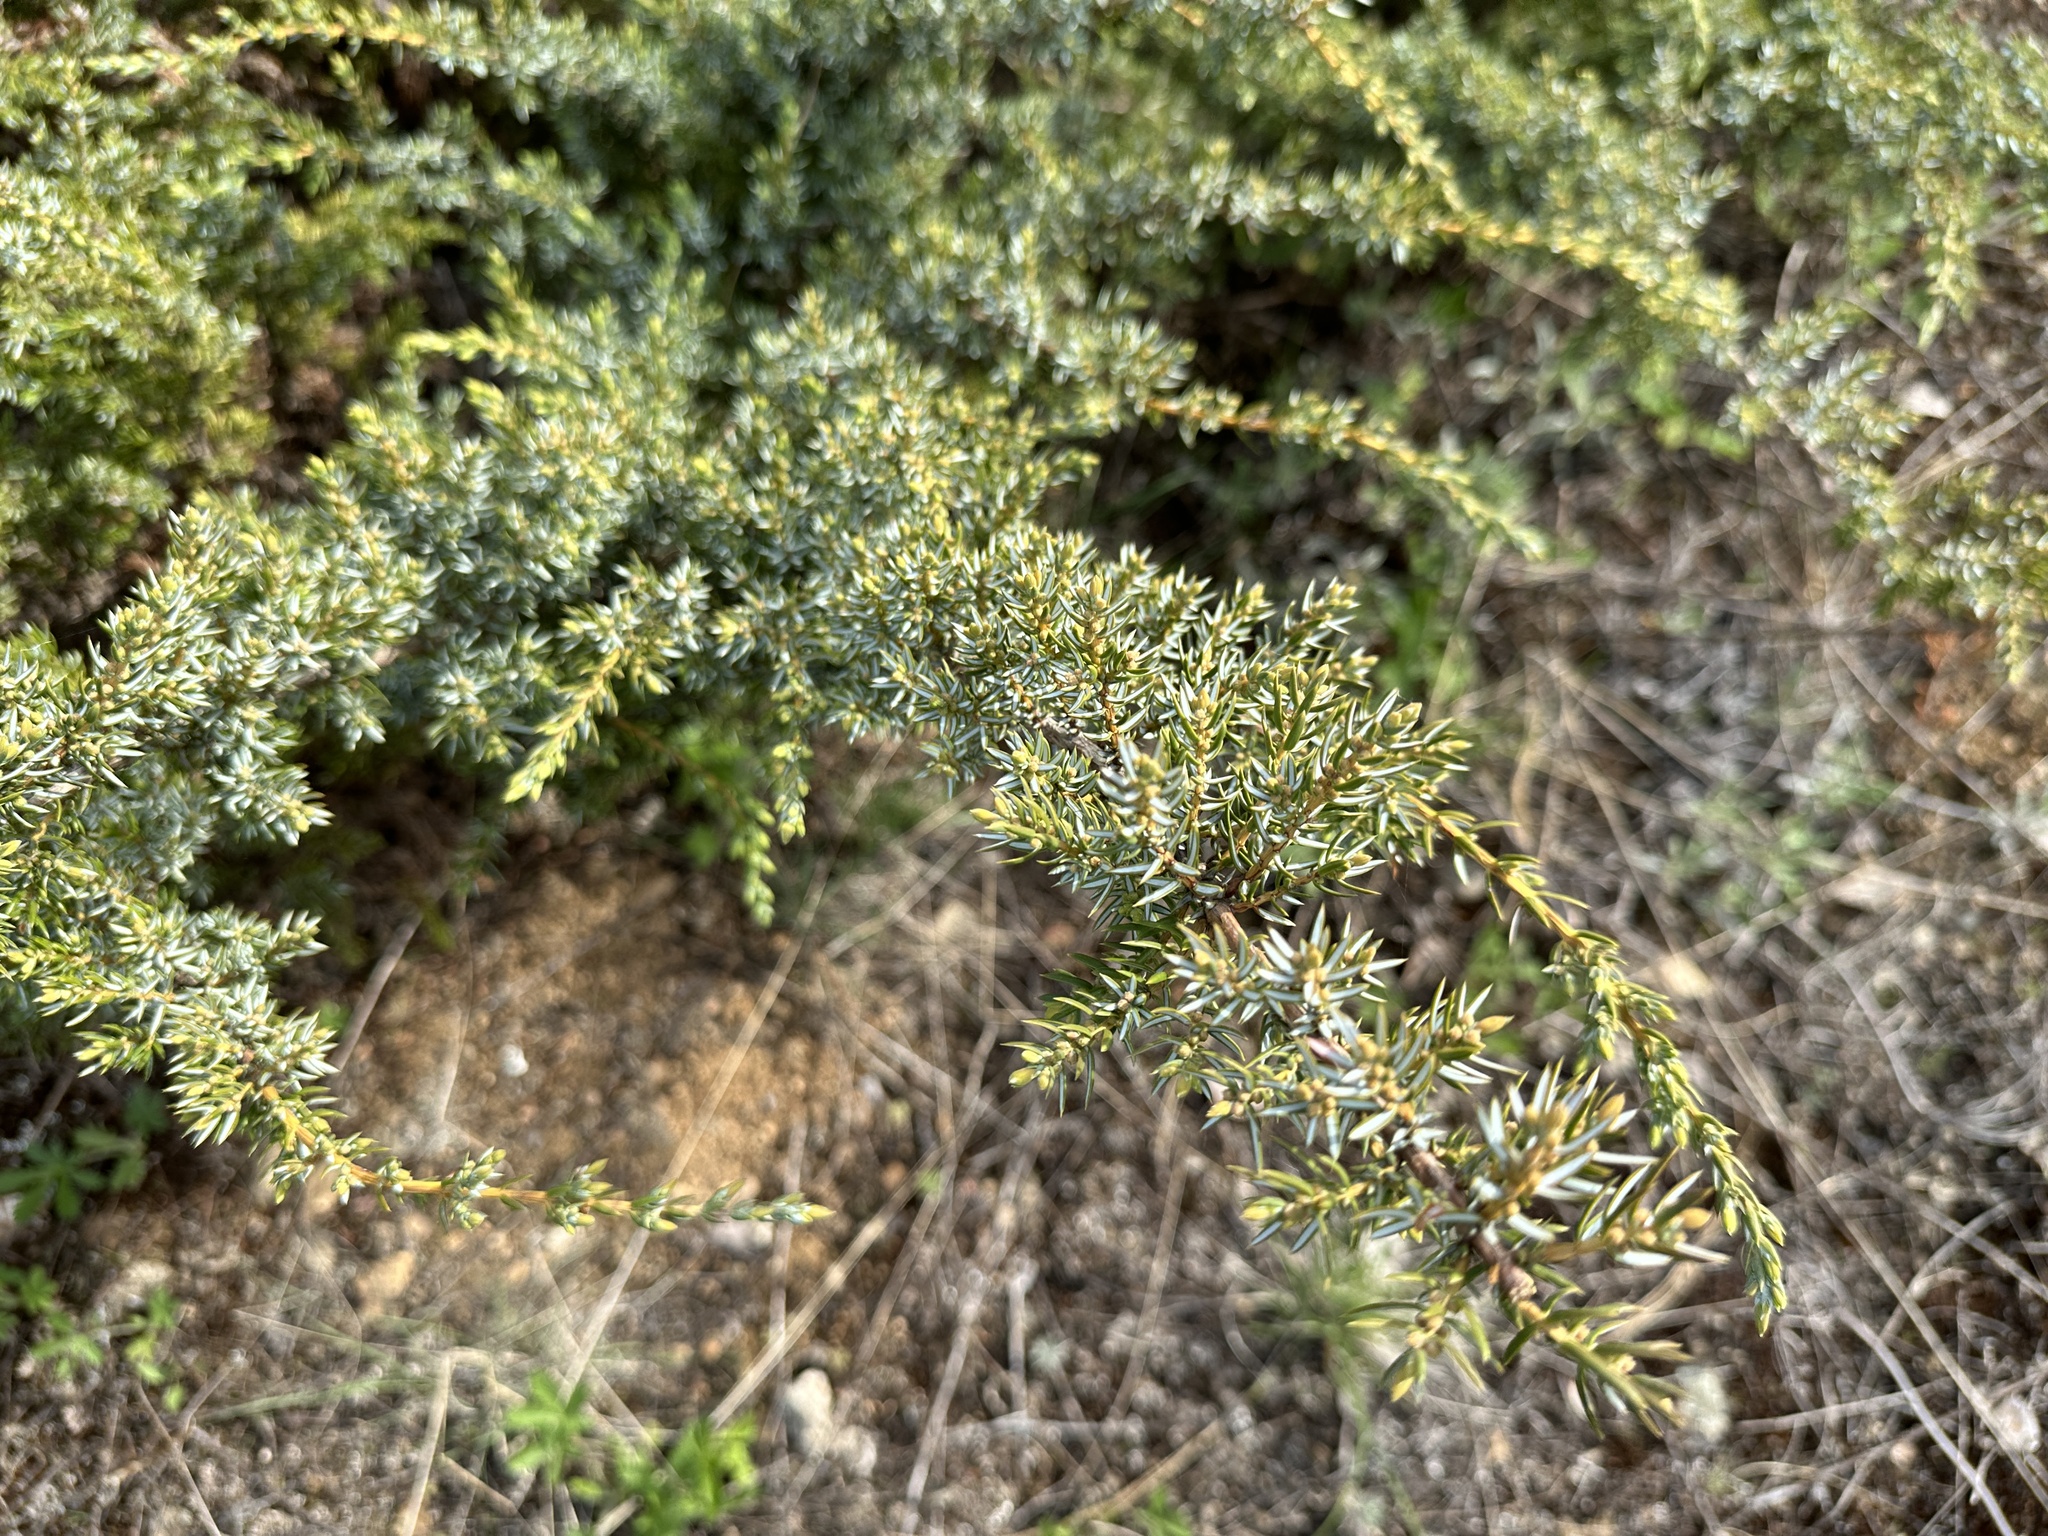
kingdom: Plantae
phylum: Tracheophyta
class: Pinopsida
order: Pinales
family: Cupressaceae
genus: Juniperus
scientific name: Juniperus communis
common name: Common juniper
